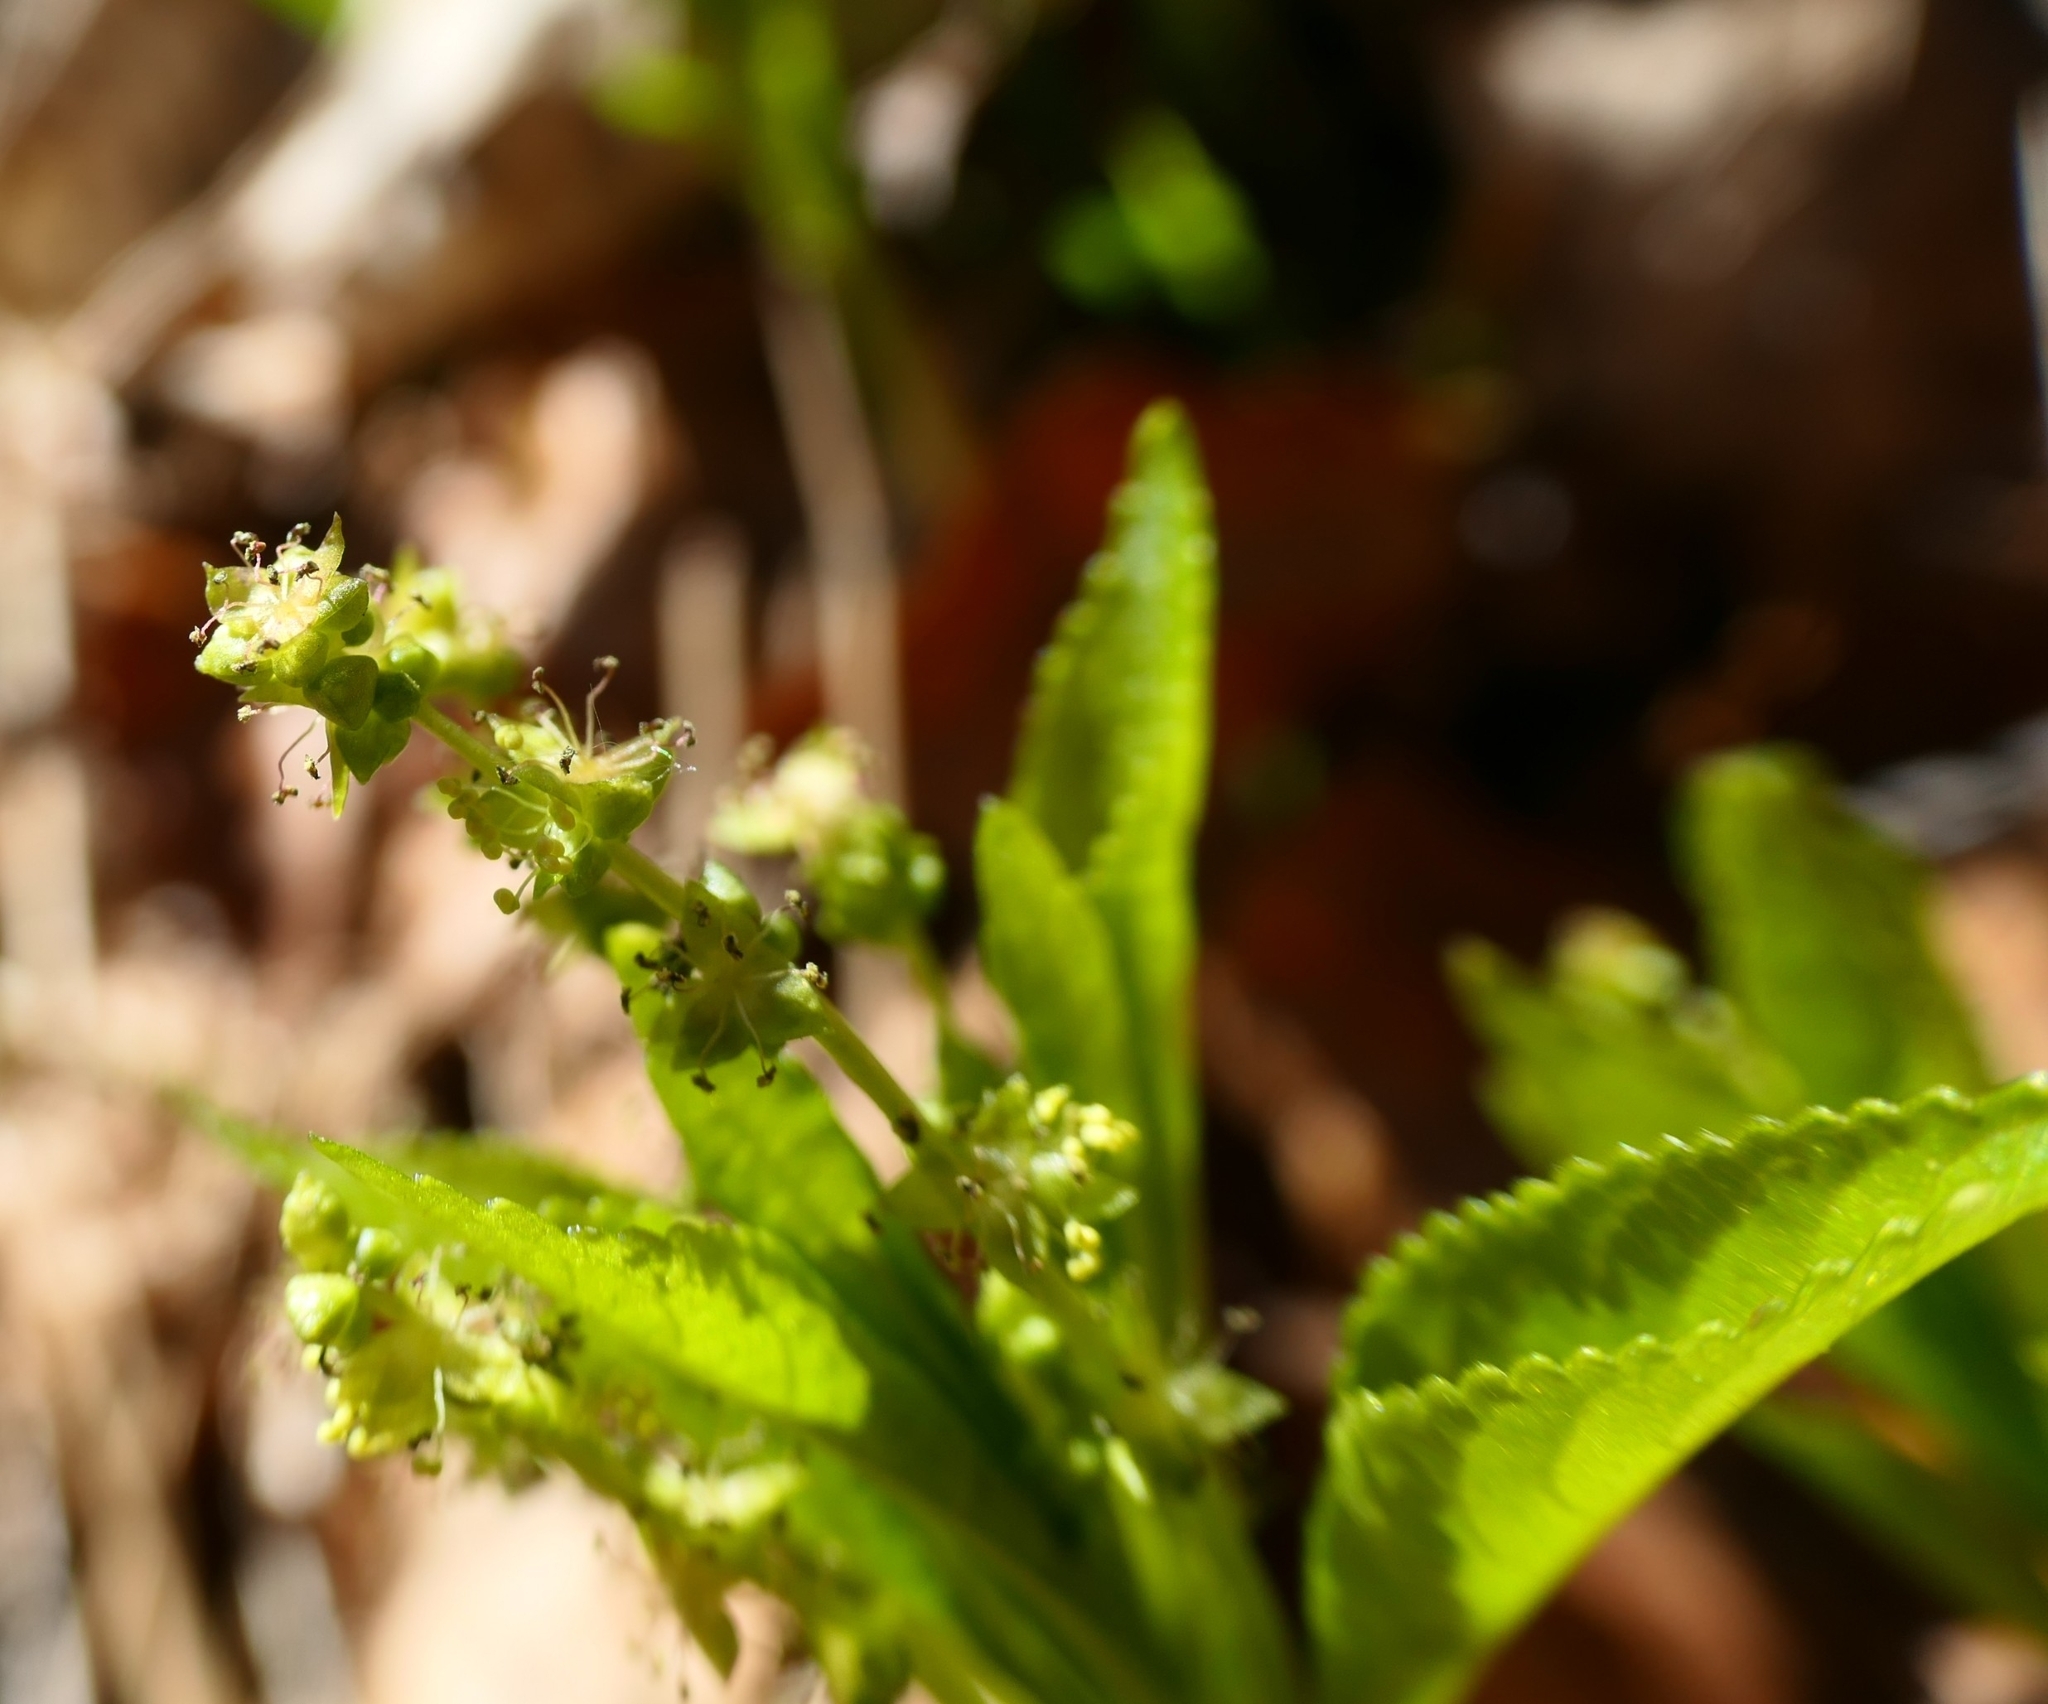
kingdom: Plantae
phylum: Tracheophyta
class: Magnoliopsida
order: Malpighiales
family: Euphorbiaceae
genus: Mercurialis
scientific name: Mercurialis perennis
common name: Dog mercury
